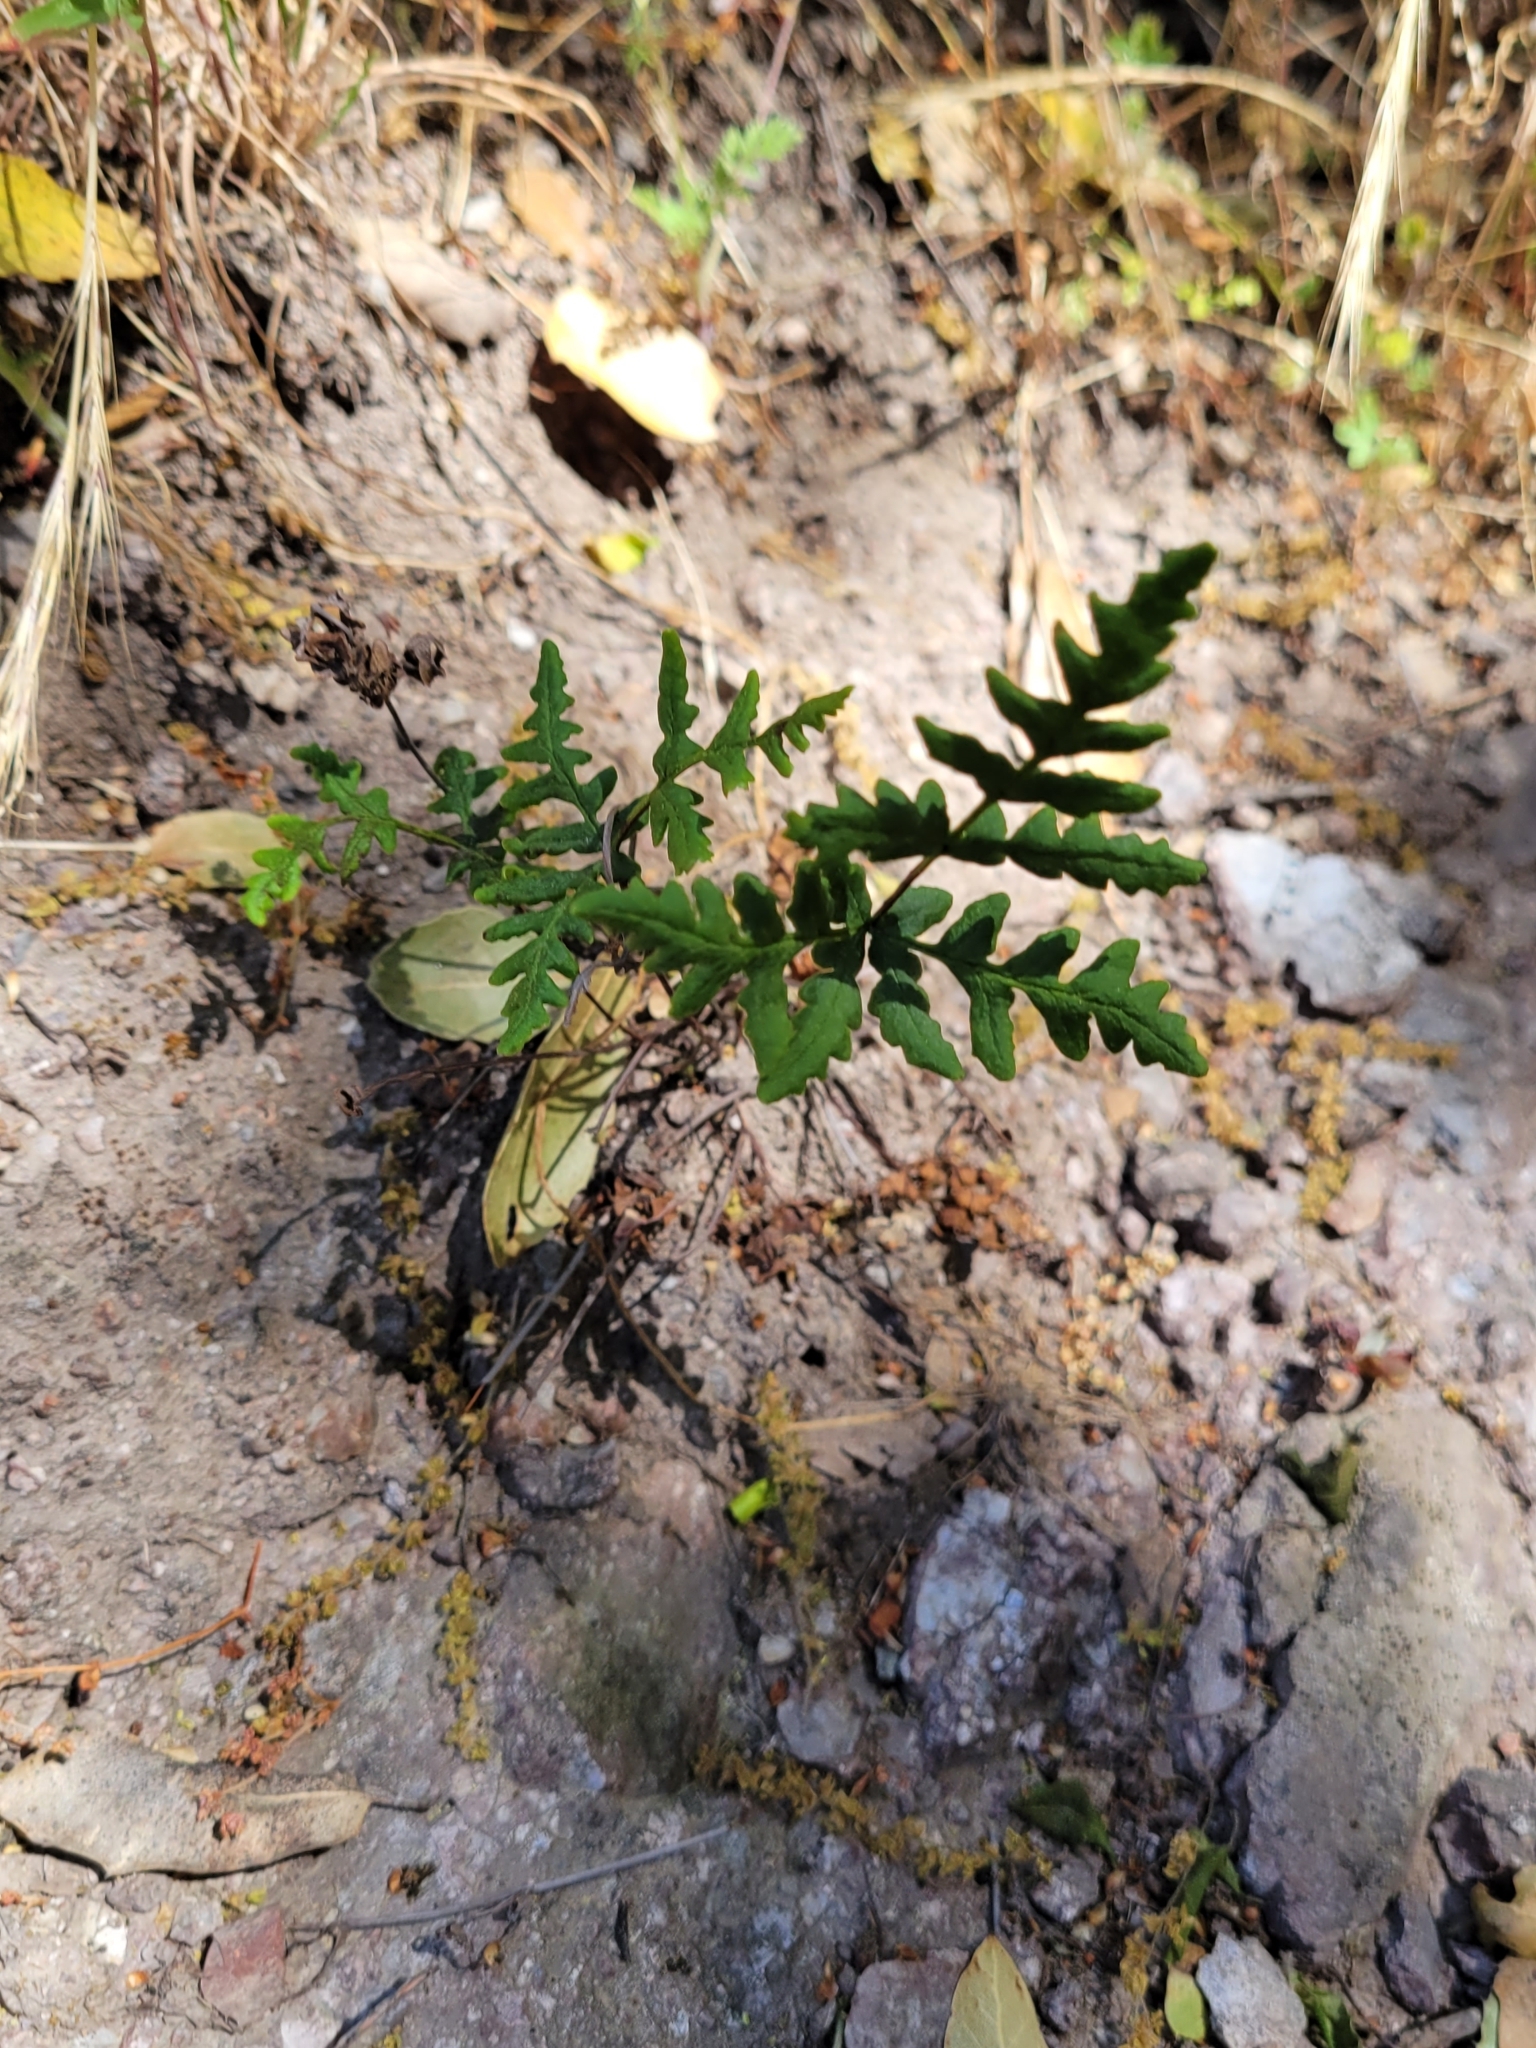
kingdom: Plantae
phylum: Tracheophyta
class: Polypodiopsida
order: Polypodiales
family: Pteridaceae
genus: Pentagramma
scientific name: Pentagramma triangularis
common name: Gold fern
